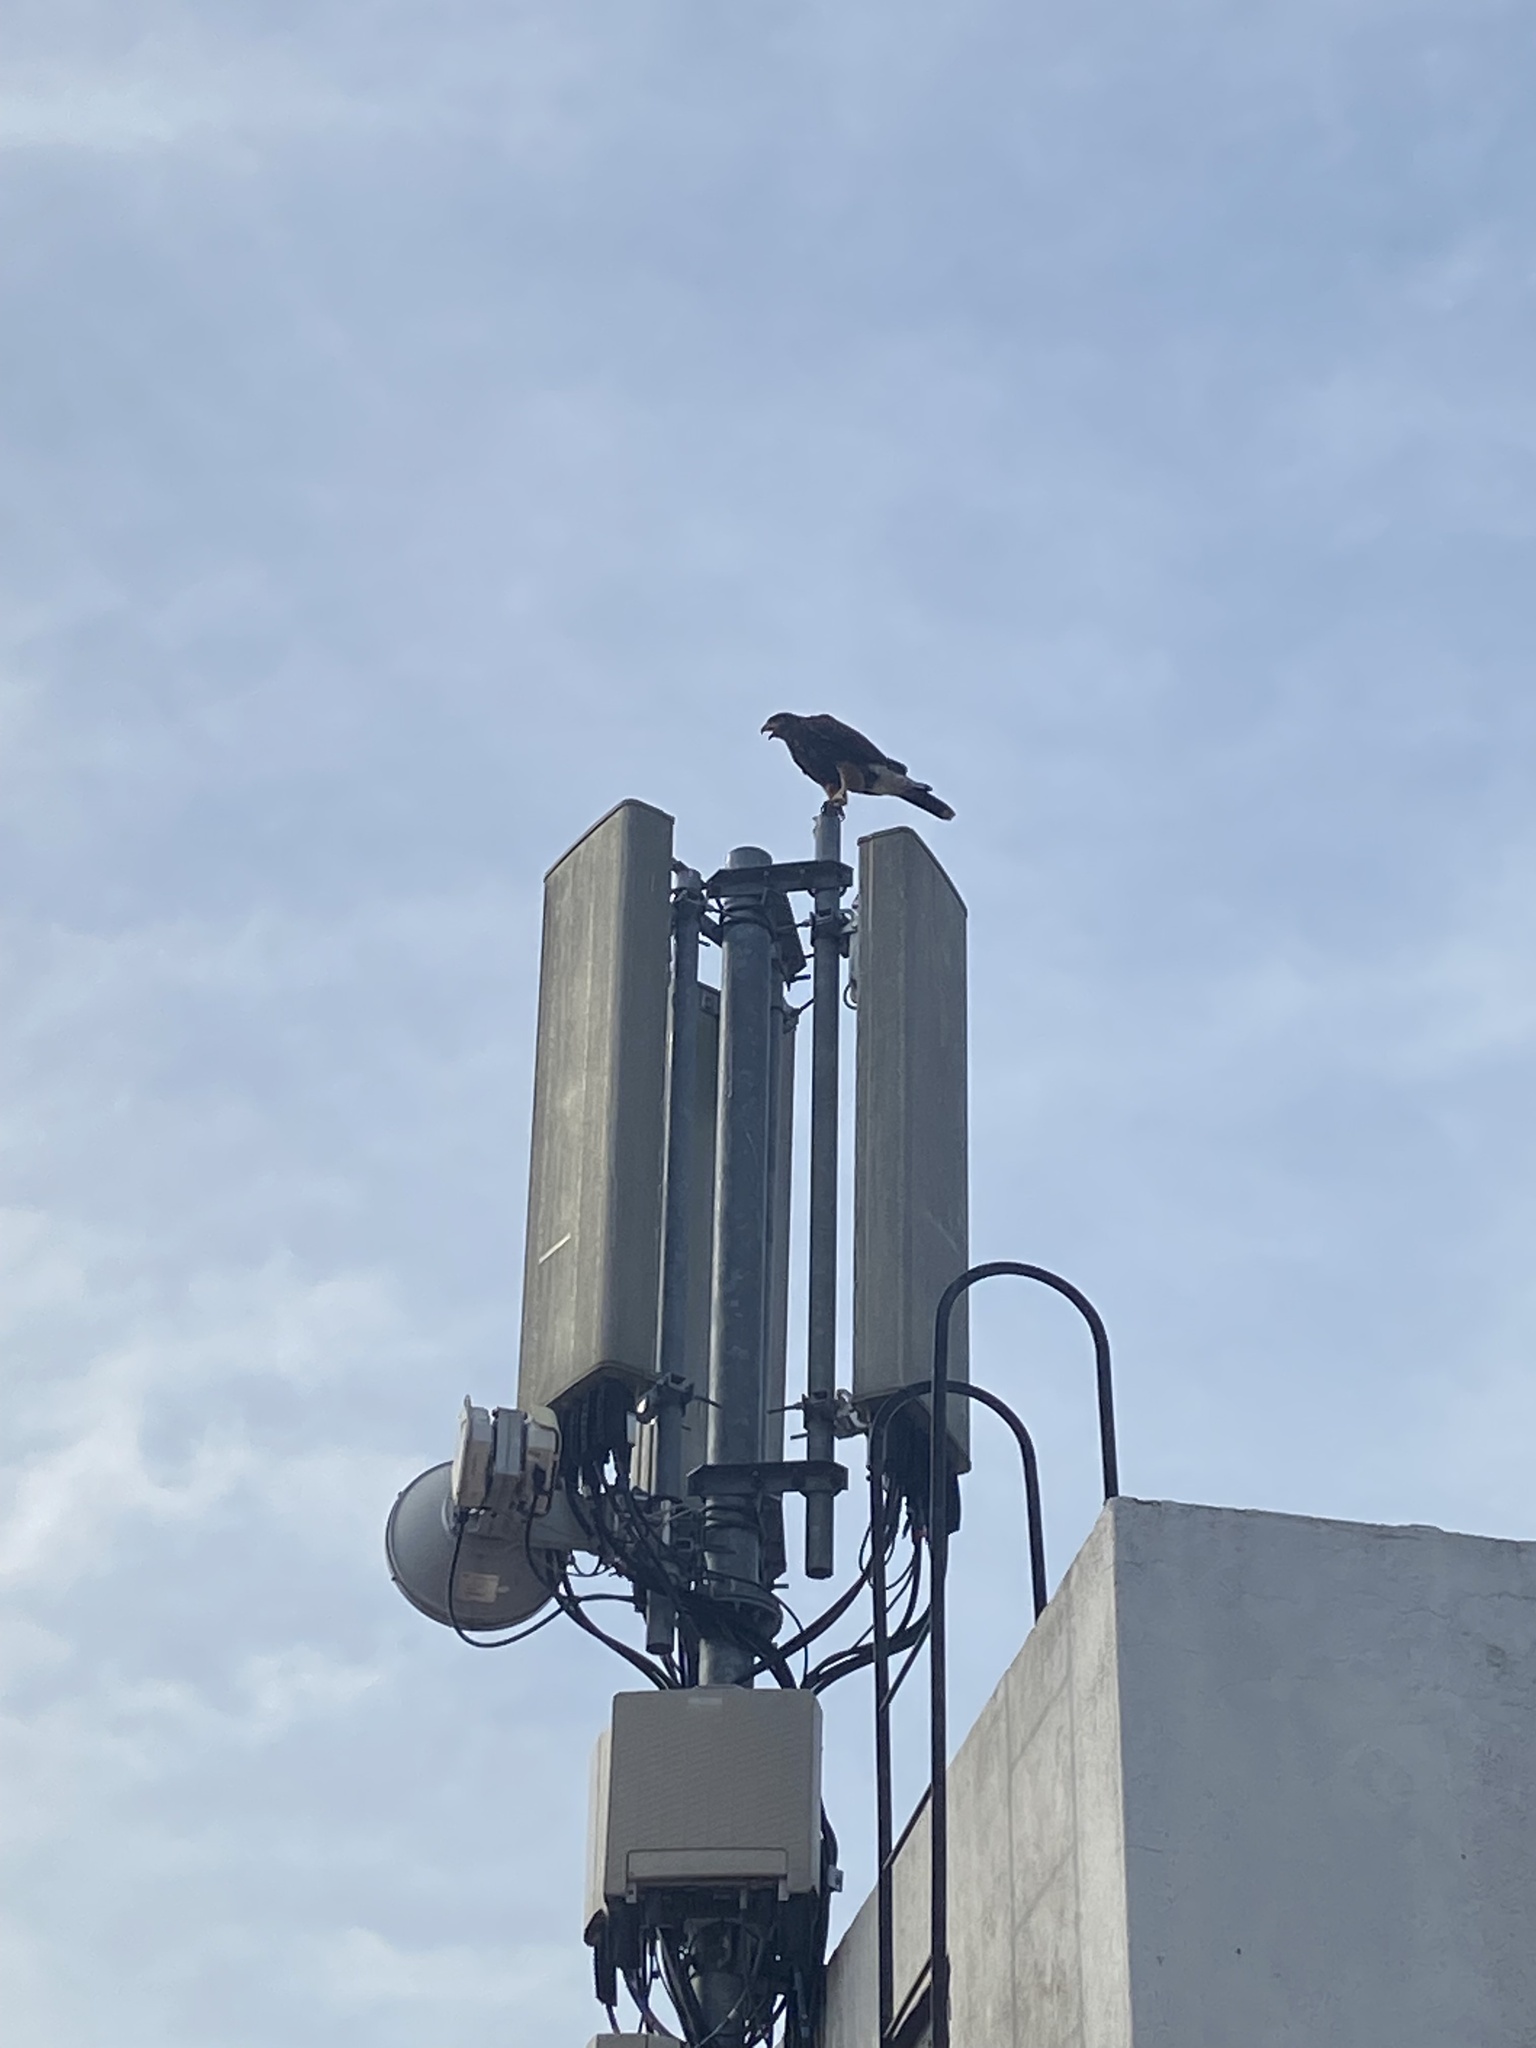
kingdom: Animalia
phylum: Chordata
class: Aves
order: Accipitriformes
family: Accipitridae
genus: Parabuteo
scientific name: Parabuteo unicinctus
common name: Harris's hawk
